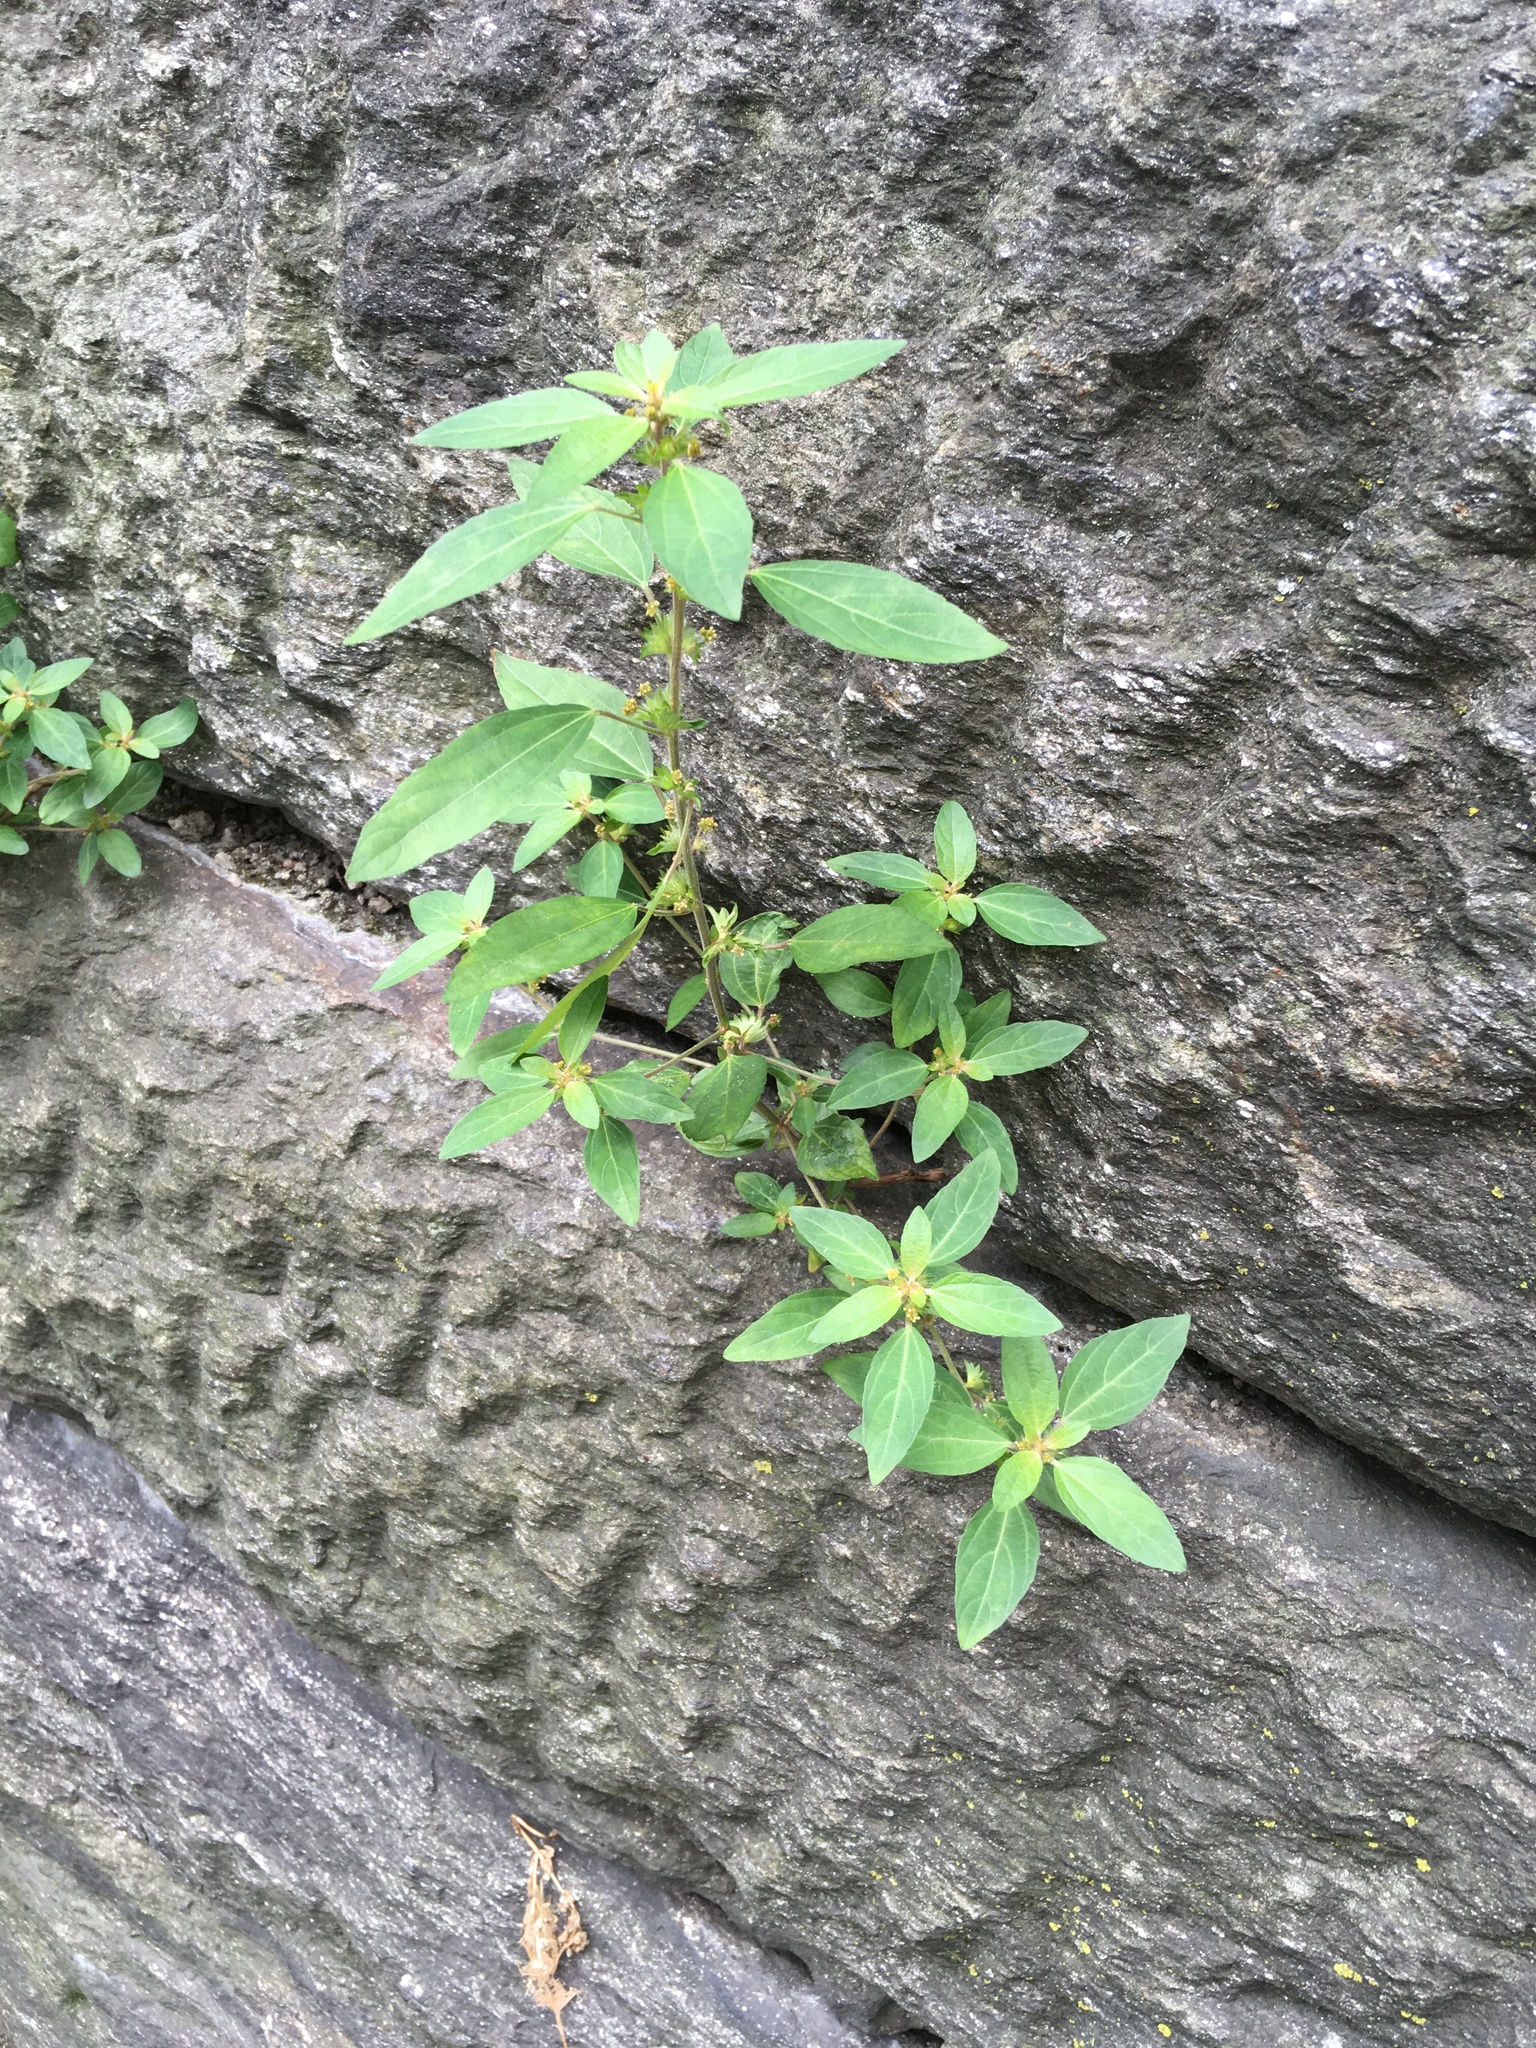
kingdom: Plantae
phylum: Tracheophyta
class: Magnoliopsida
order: Malpighiales
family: Euphorbiaceae
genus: Acalypha
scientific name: Acalypha rhomboidea
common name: Rhombic copperleaf
